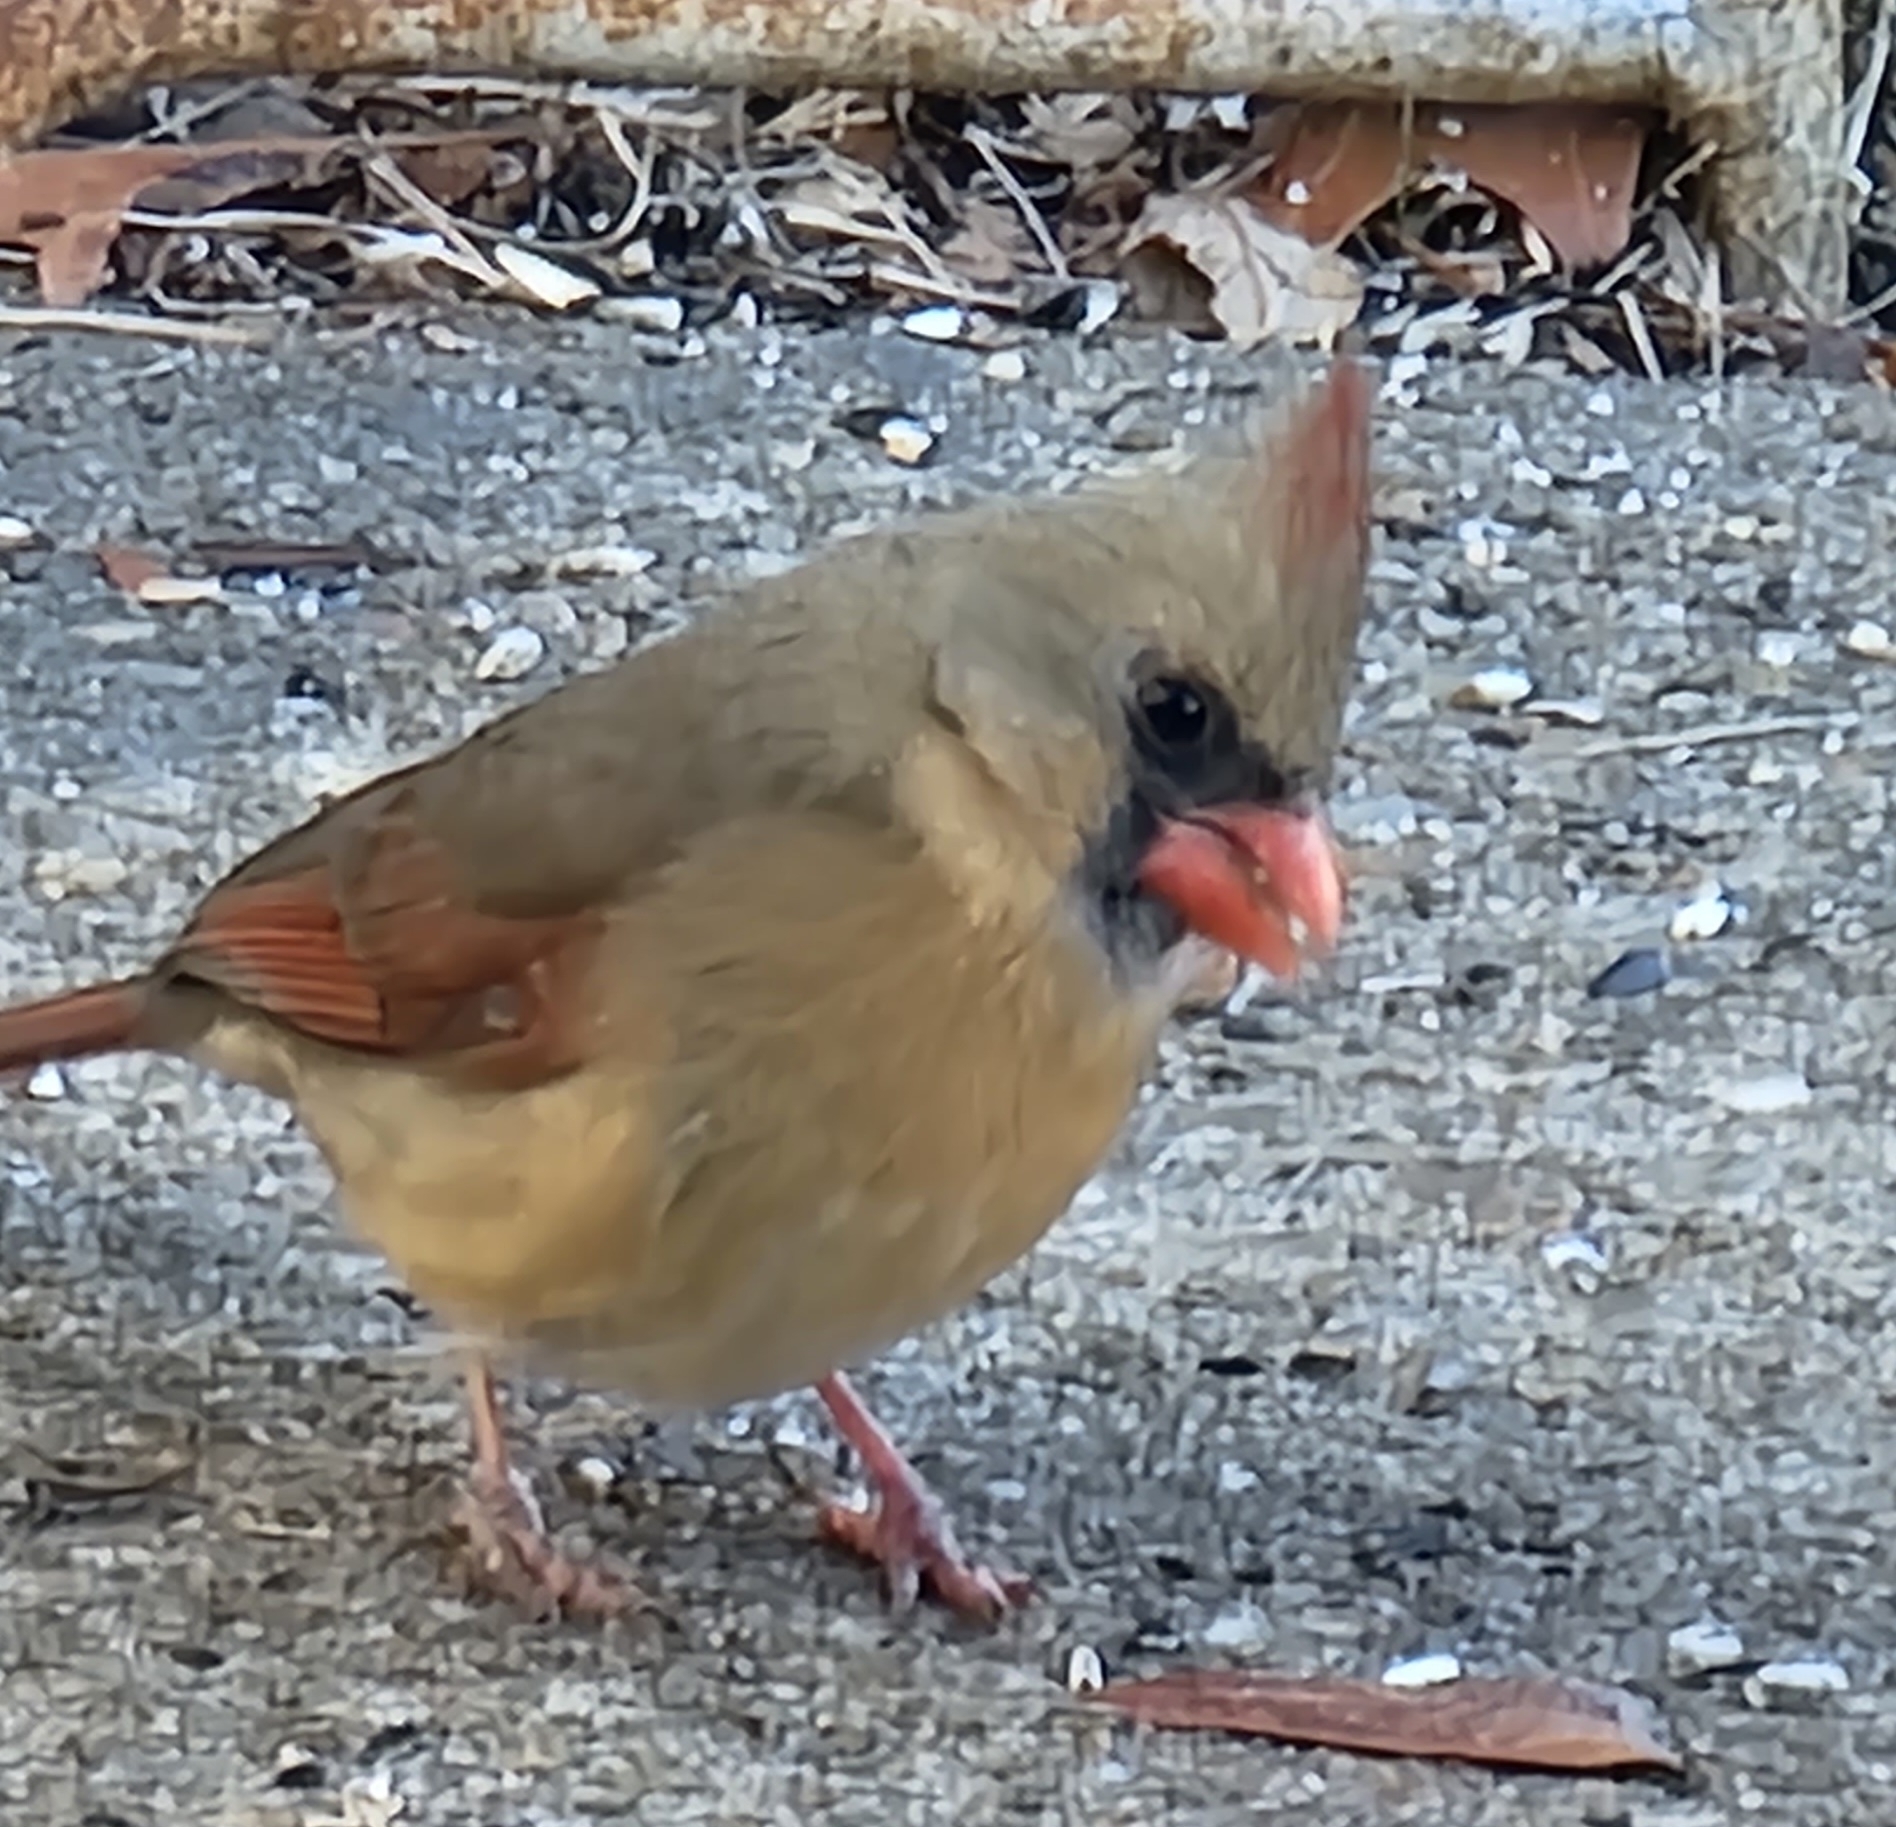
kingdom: Animalia
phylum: Chordata
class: Aves
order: Passeriformes
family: Cardinalidae
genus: Cardinalis
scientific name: Cardinalis cardinalis
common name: Northern cardinal
